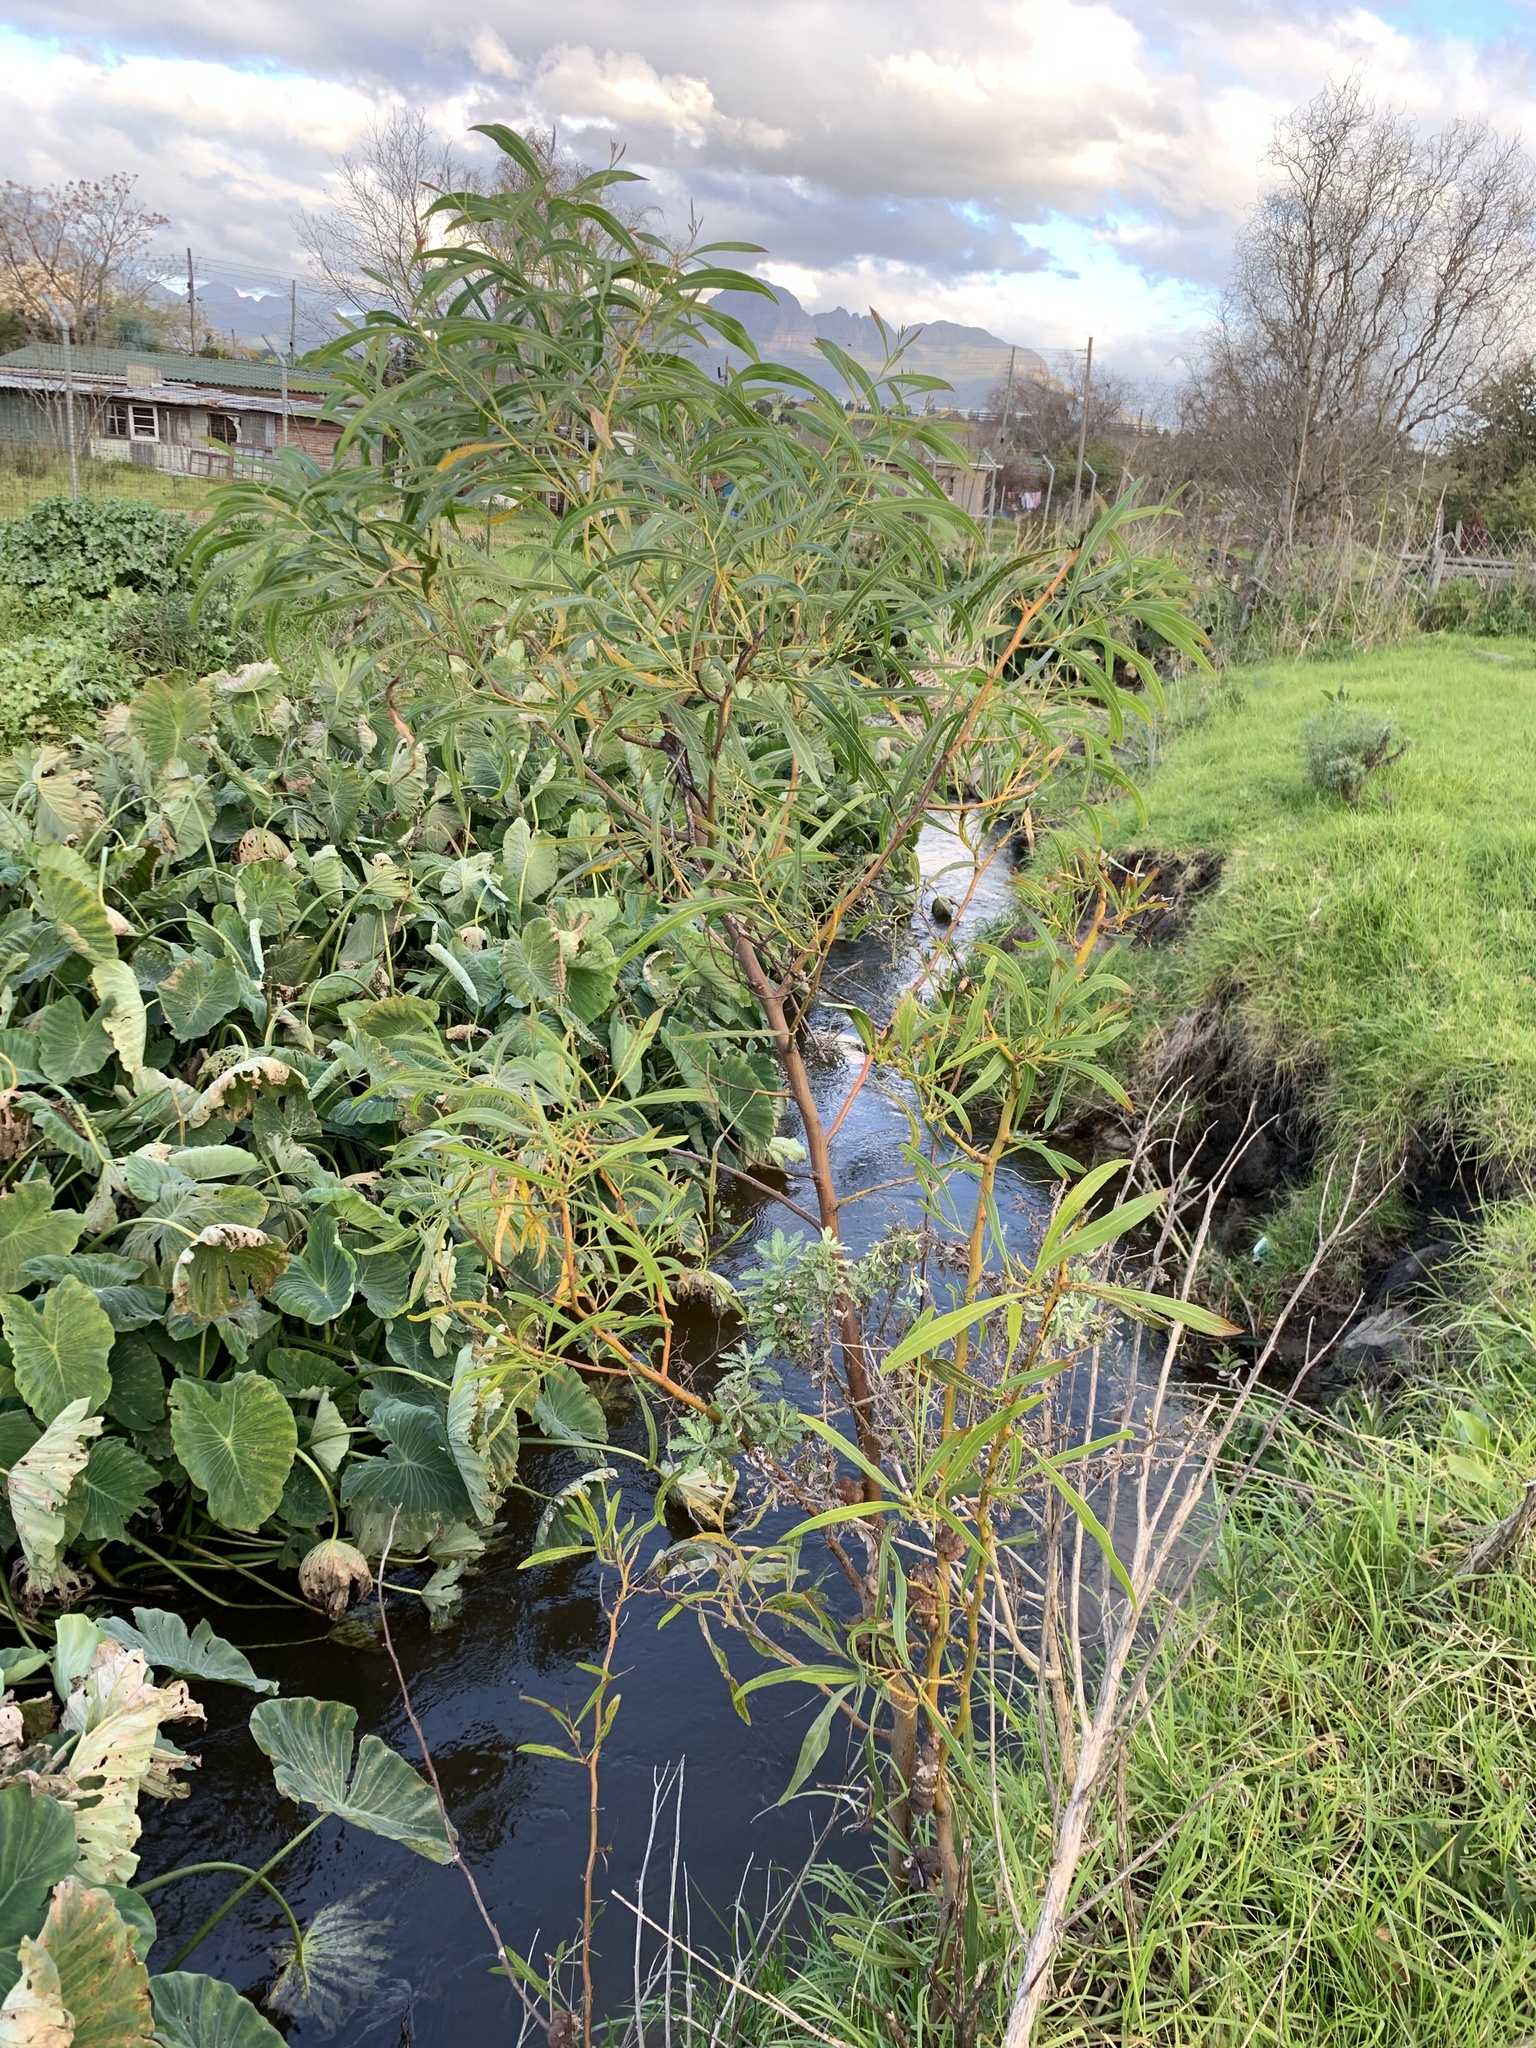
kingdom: Plantae
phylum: Tracheophyta
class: Magnoliopsida
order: Fabales
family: Fabaceae
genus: Acacia
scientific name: Acacia saligna
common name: Orange wattle
